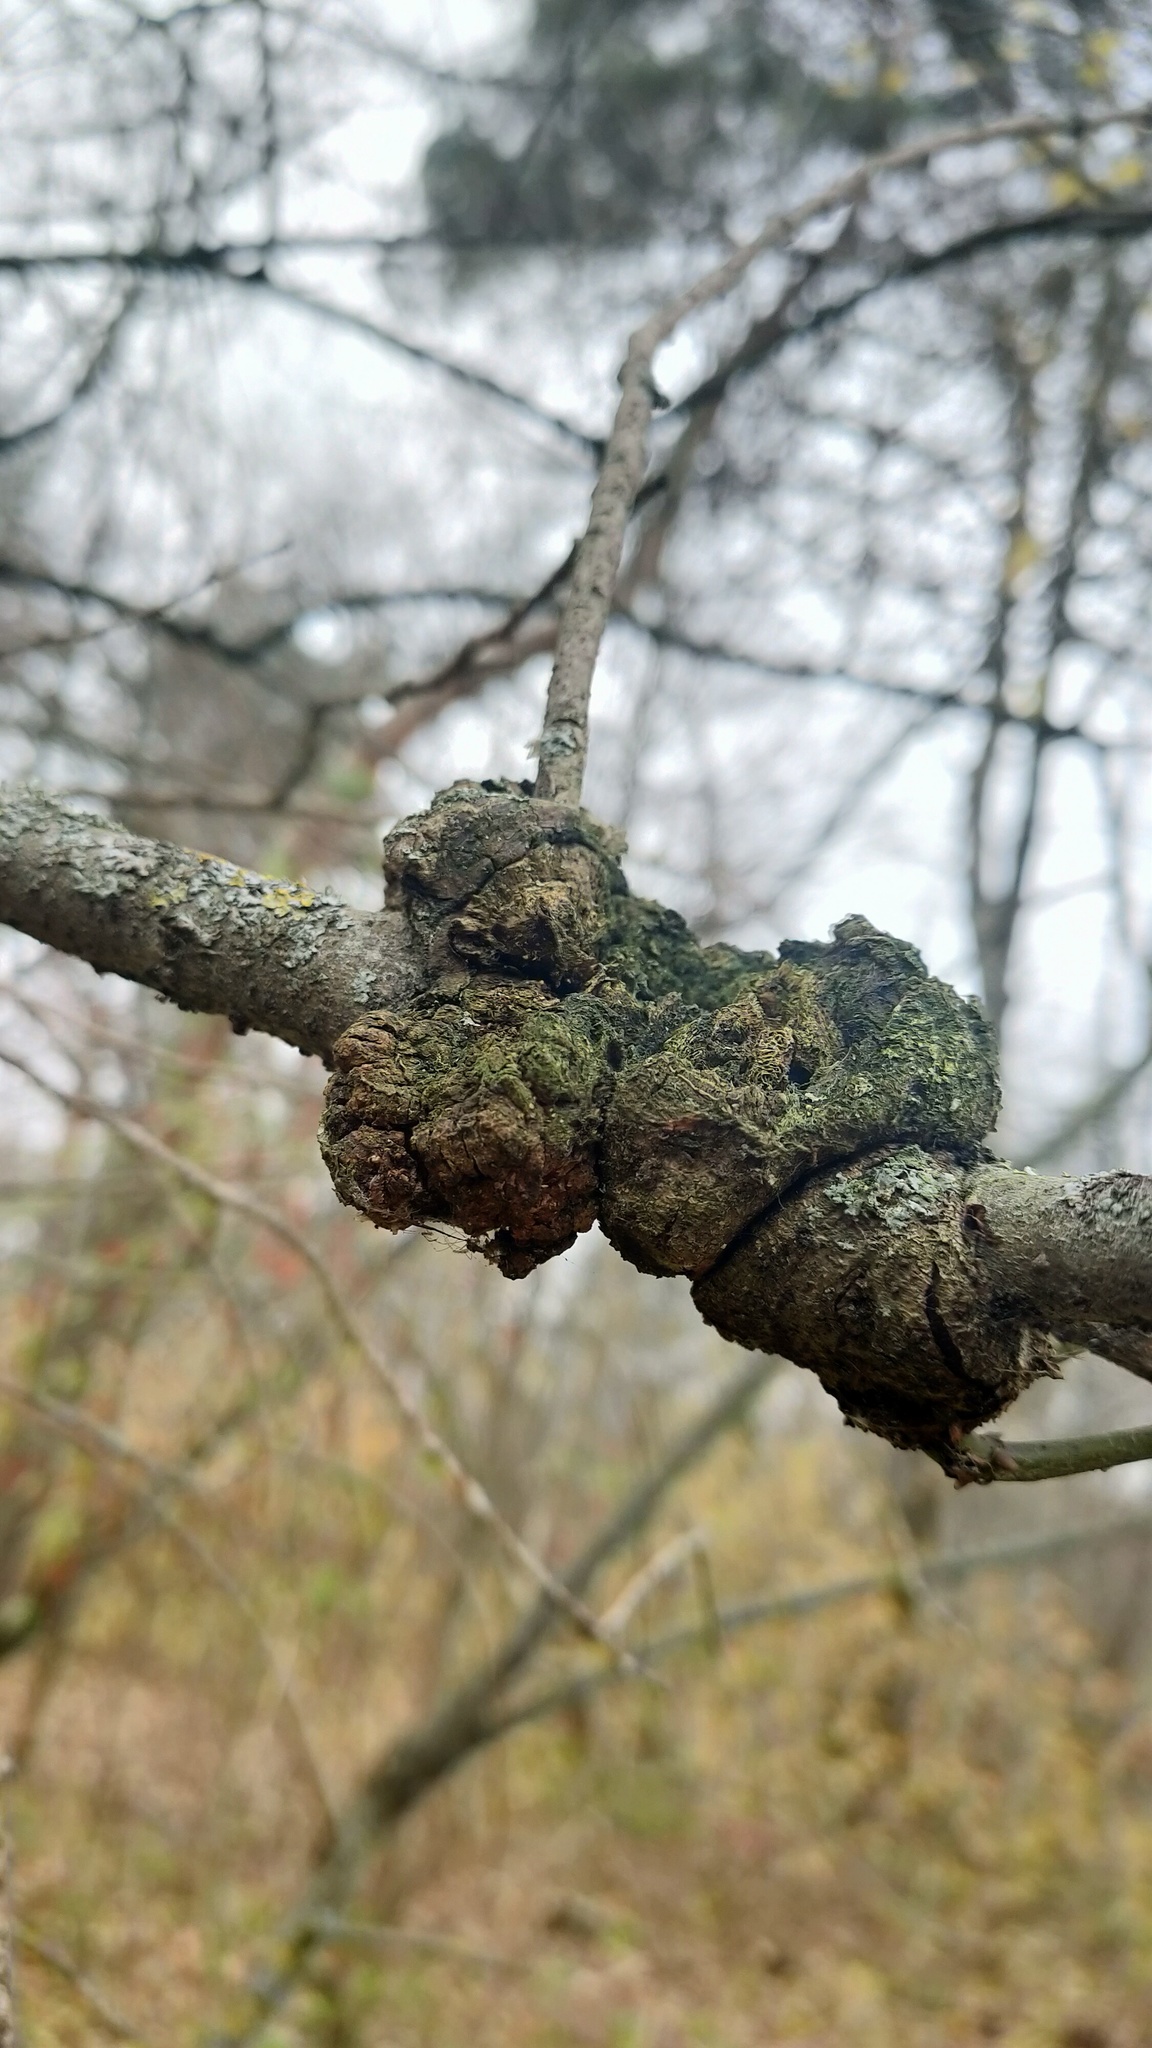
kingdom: Bacteria
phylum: Proteobacteria
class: Alphaproteobacteria
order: Rhizobiales
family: Rhizobiaceae
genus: Rhizobium
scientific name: Rhizobium Agrobacterium radiobacter
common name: Bacterial crown gall
